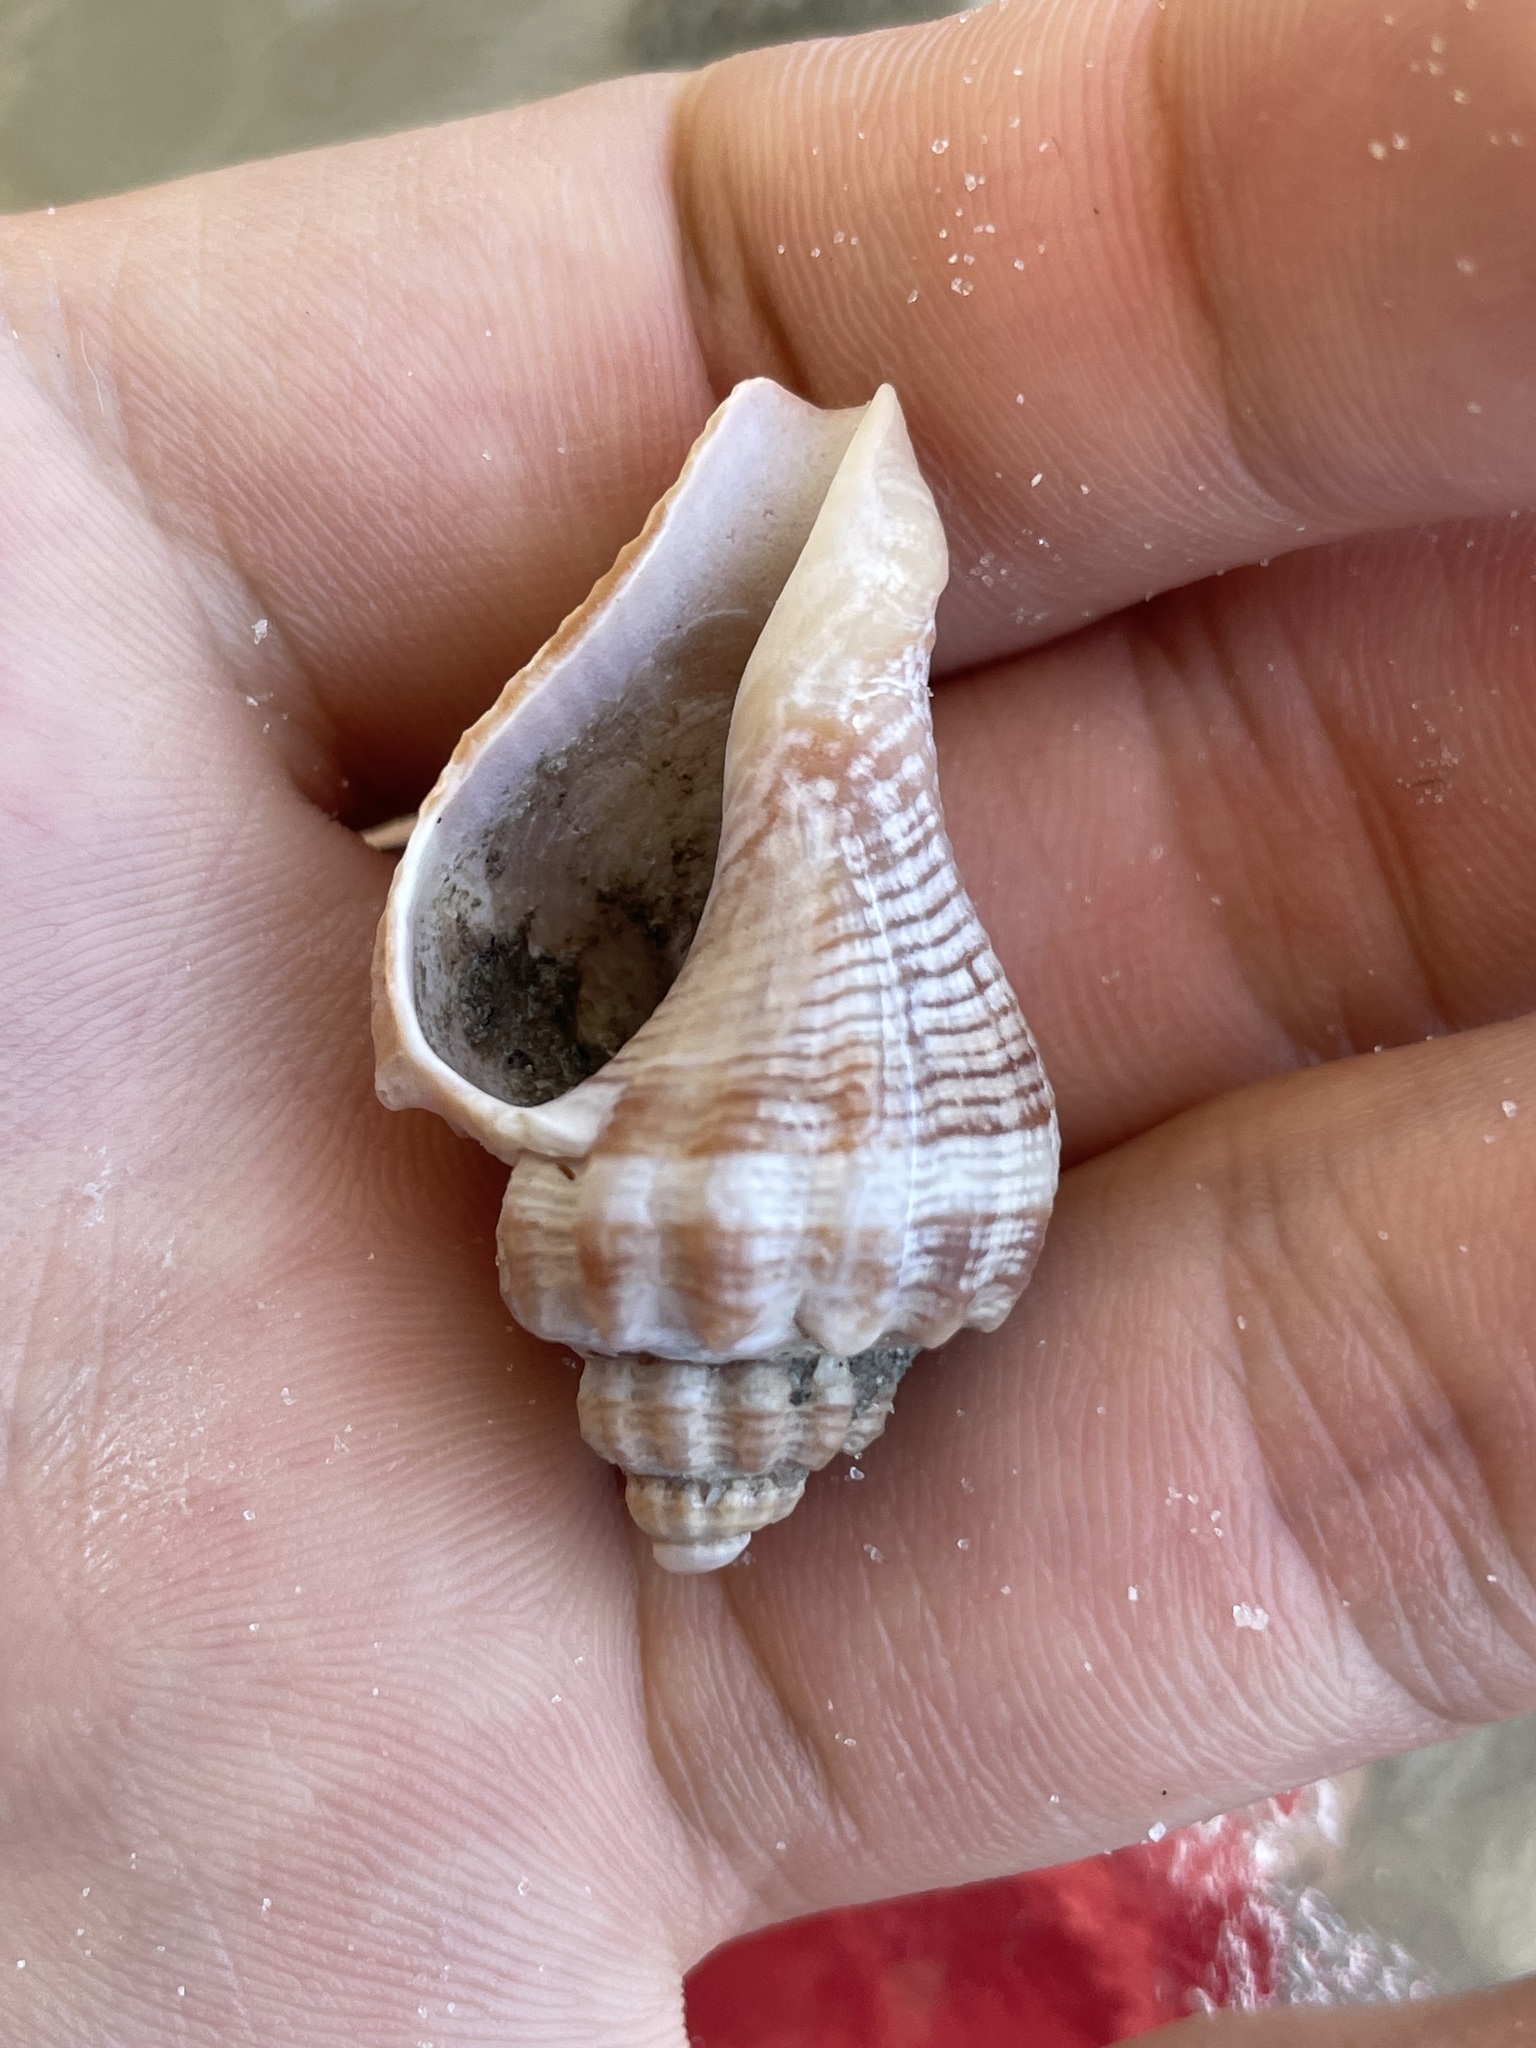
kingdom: Animalia
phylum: Mollusca
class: Gastropoda
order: Neogastropoda
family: Melongenidae
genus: Melongena
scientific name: Melongena corona
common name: American crown conch
